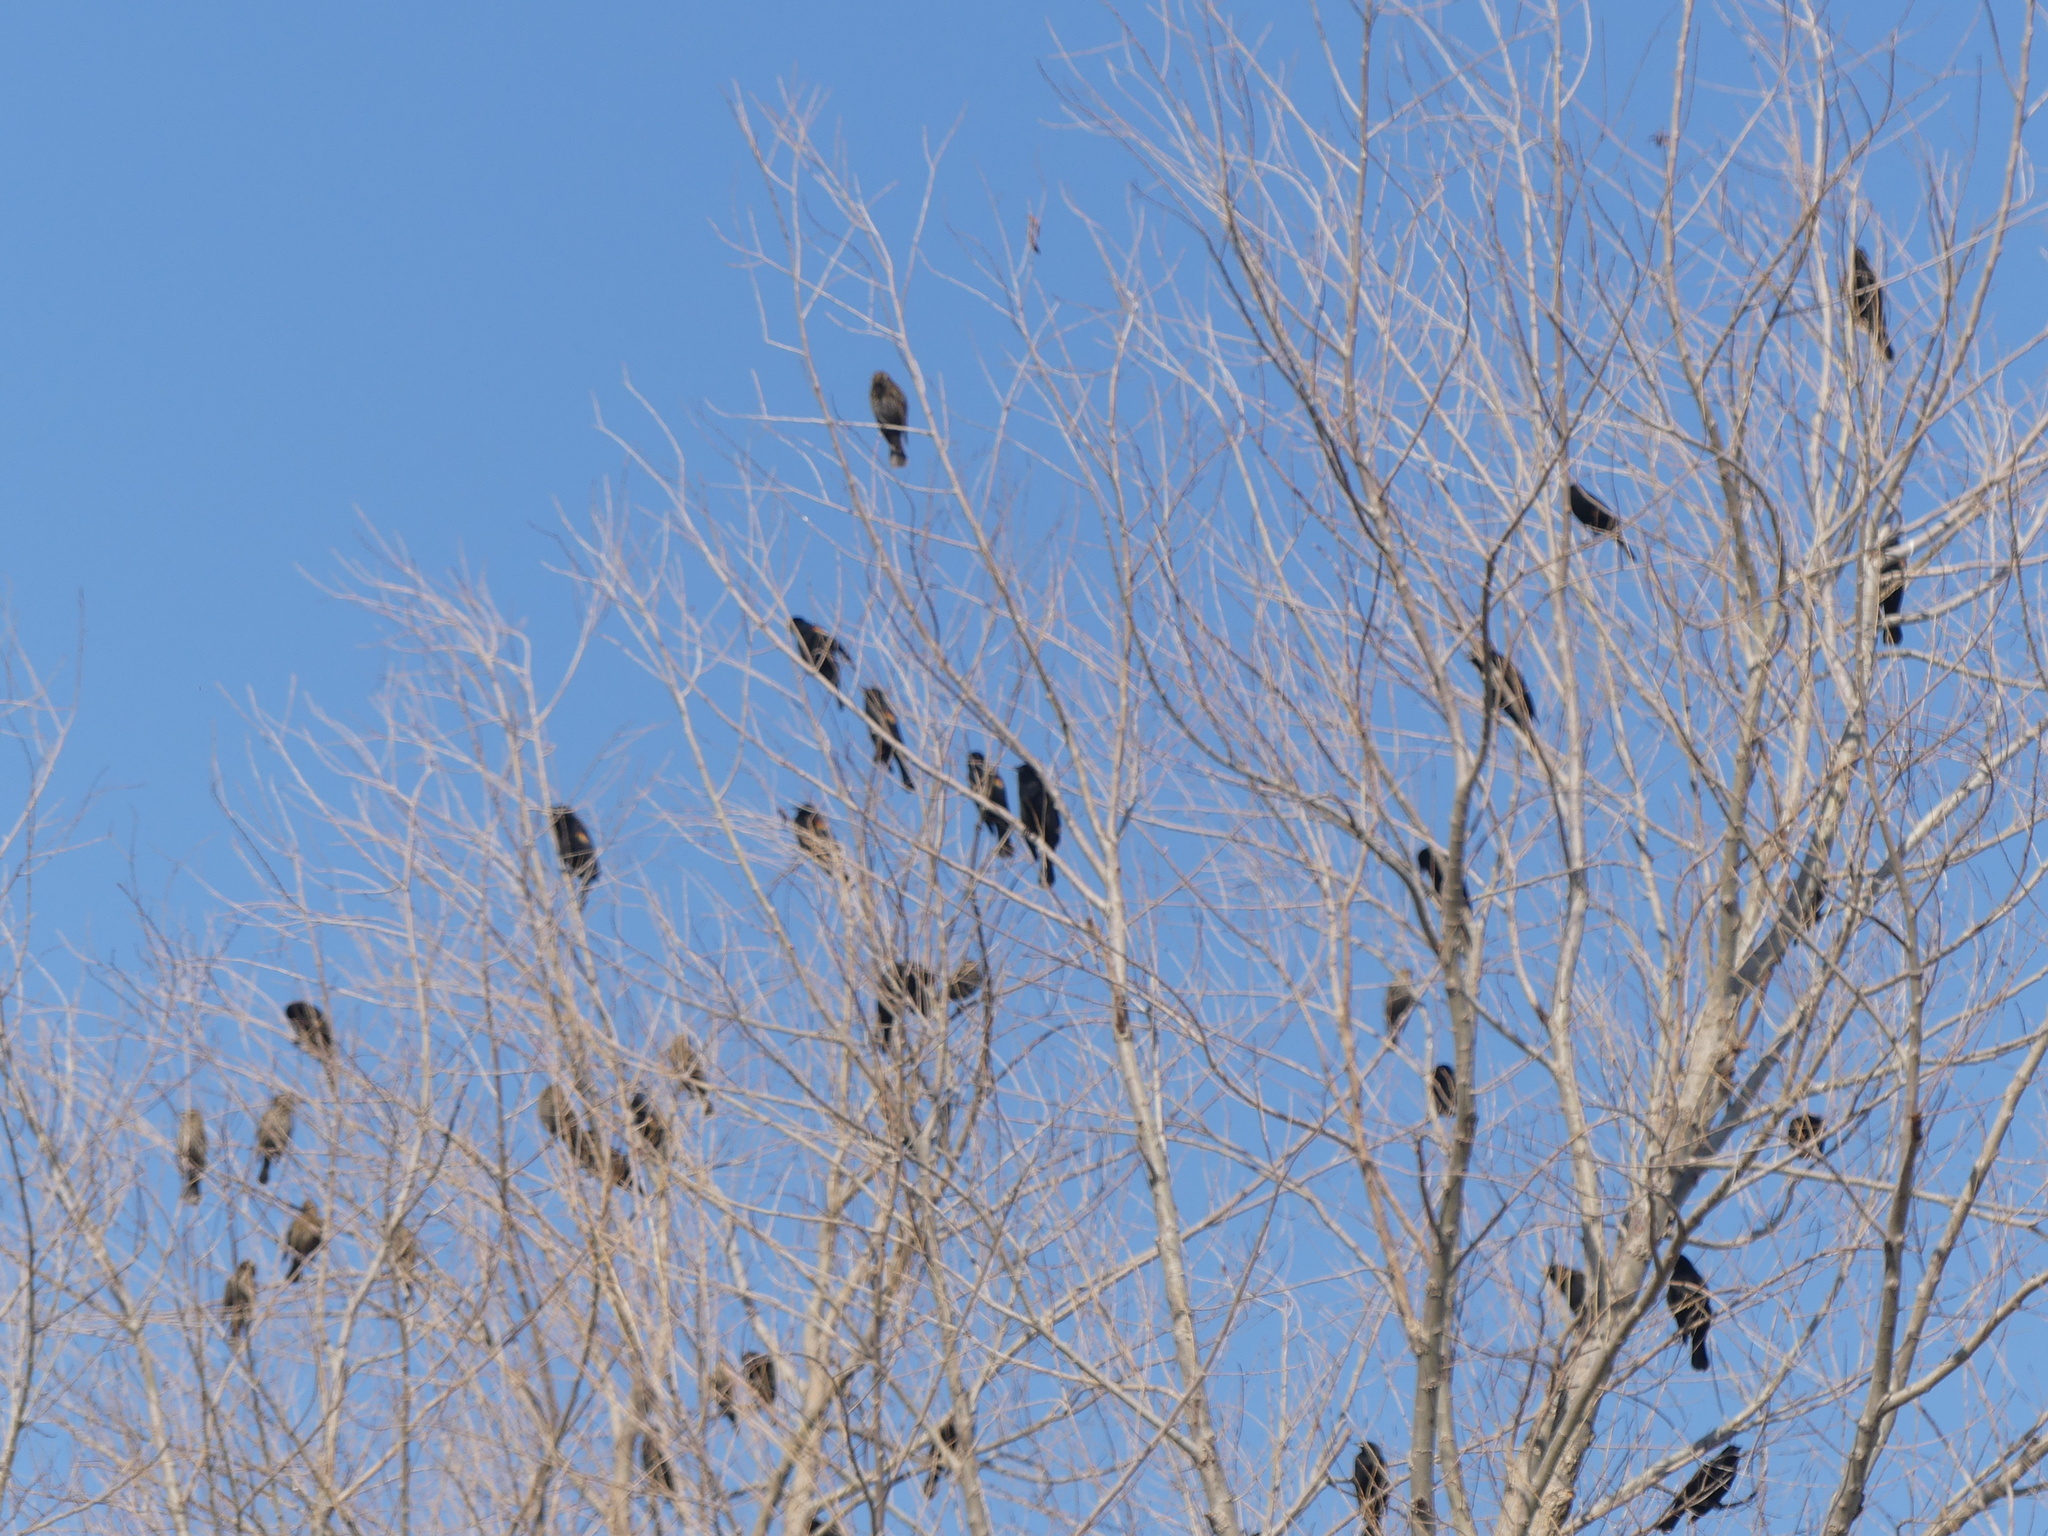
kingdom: Animalia
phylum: Chordata
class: Aves
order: Passeriformes
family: Icteridae
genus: Agelaius
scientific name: Agelaius phoeniceus
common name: Red-winged blackbird
